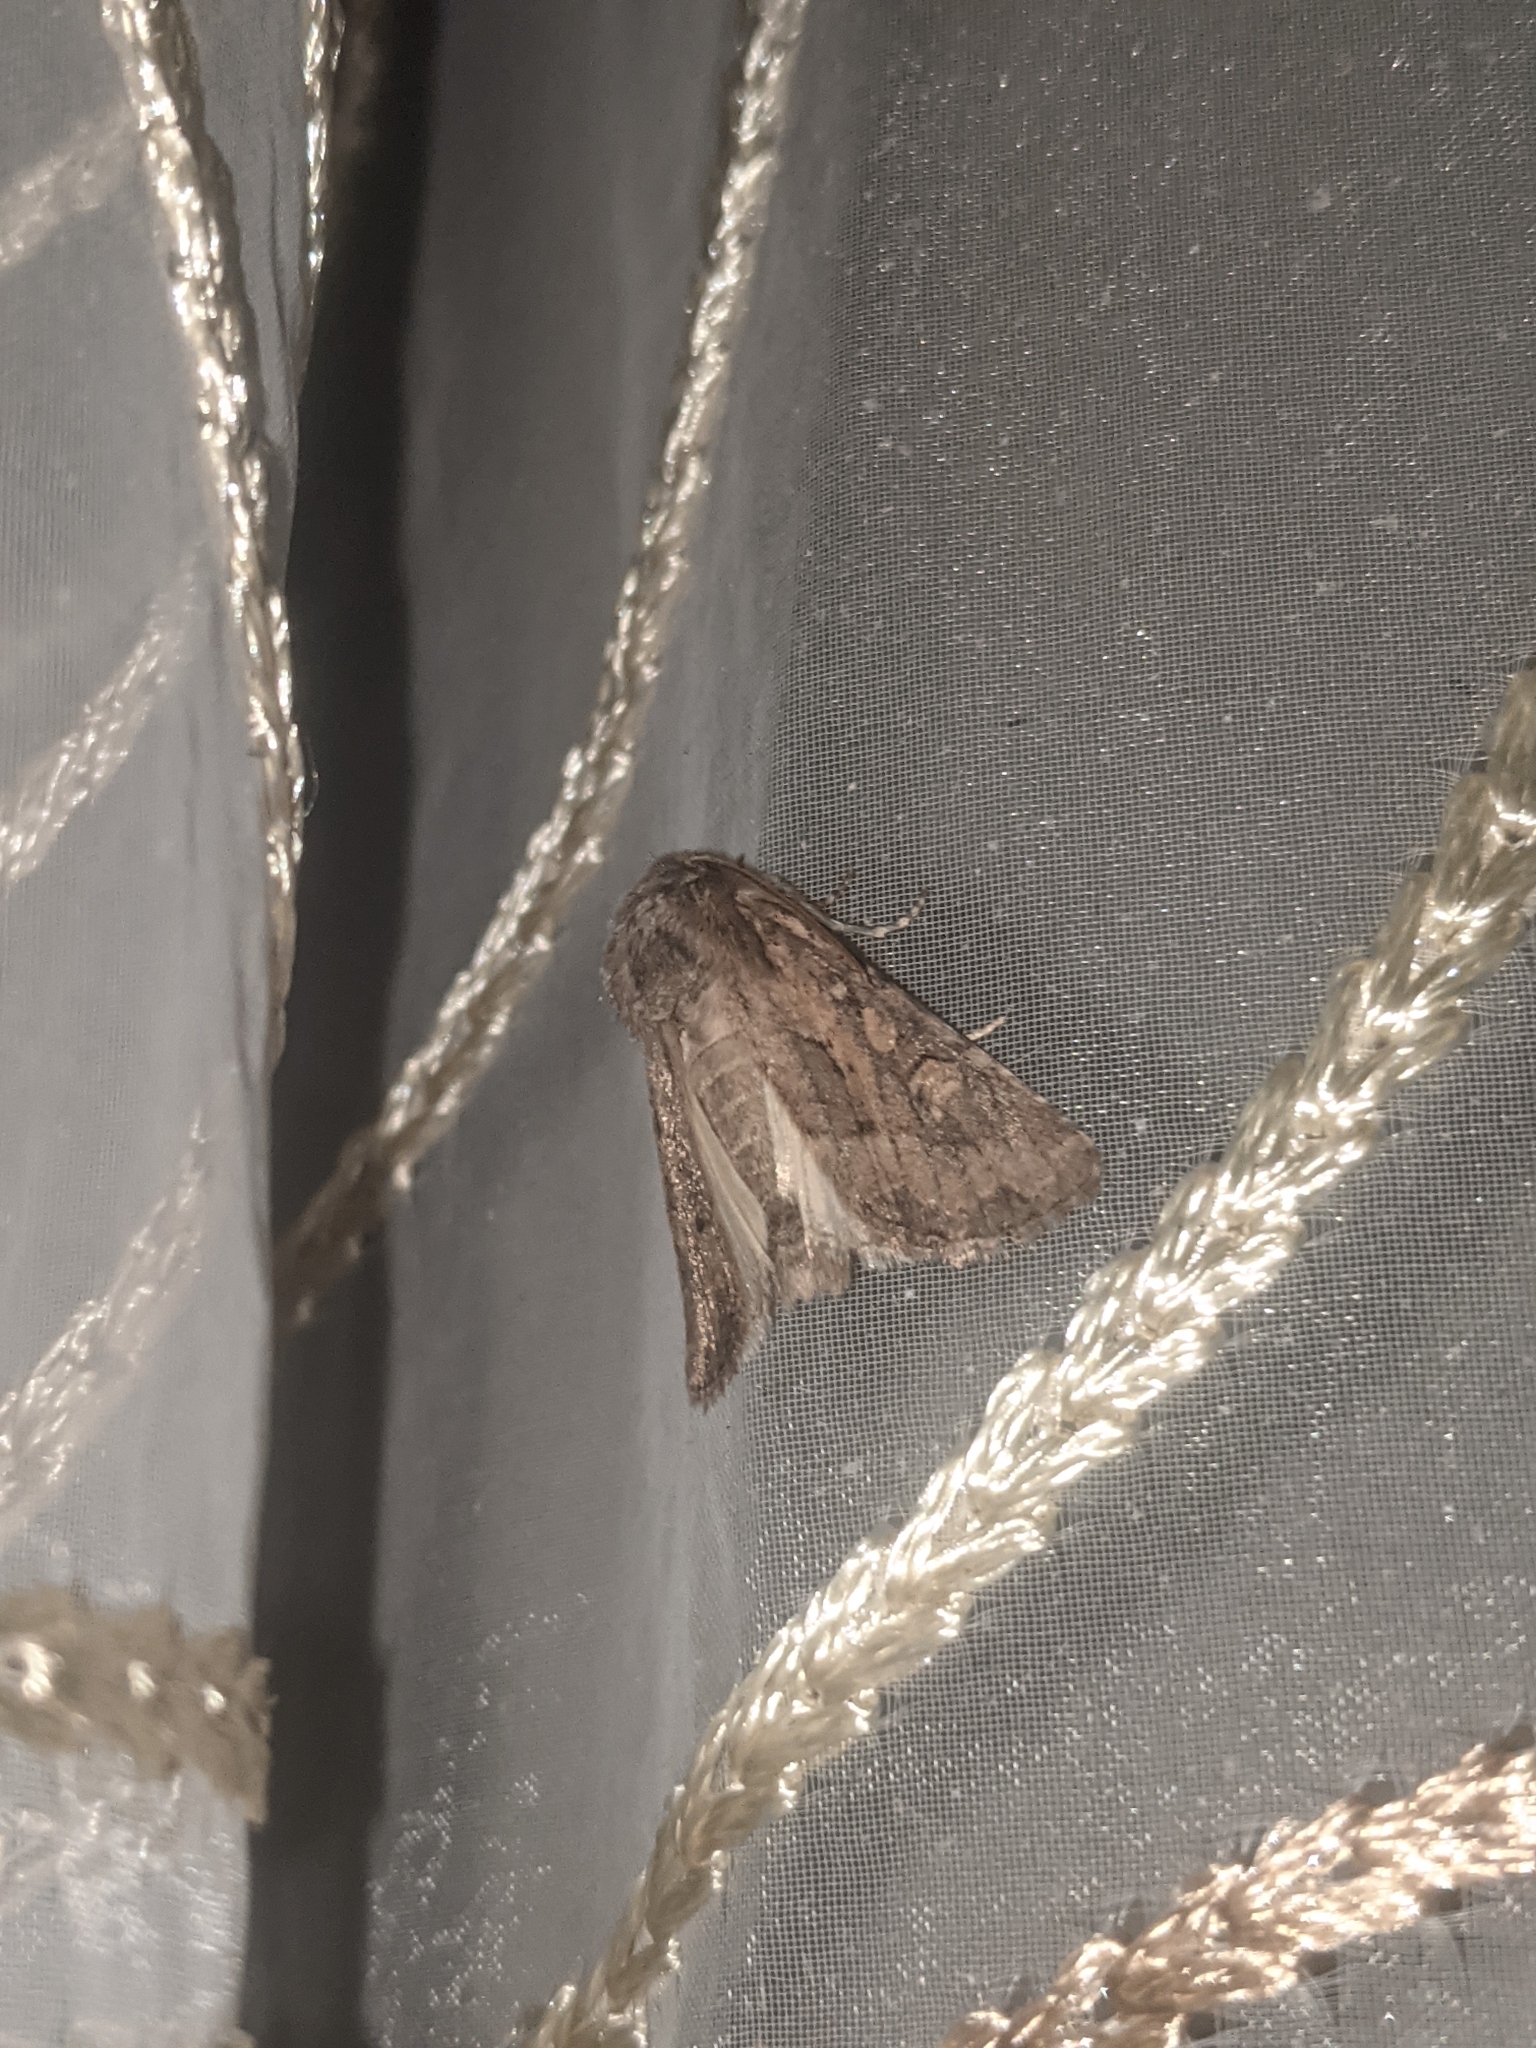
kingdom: Animalia
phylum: Arthropoda
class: Insecta
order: Lepidoptera
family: Noctuidae
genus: Luperina
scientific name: Luperina testacea
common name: Flounced rustic
